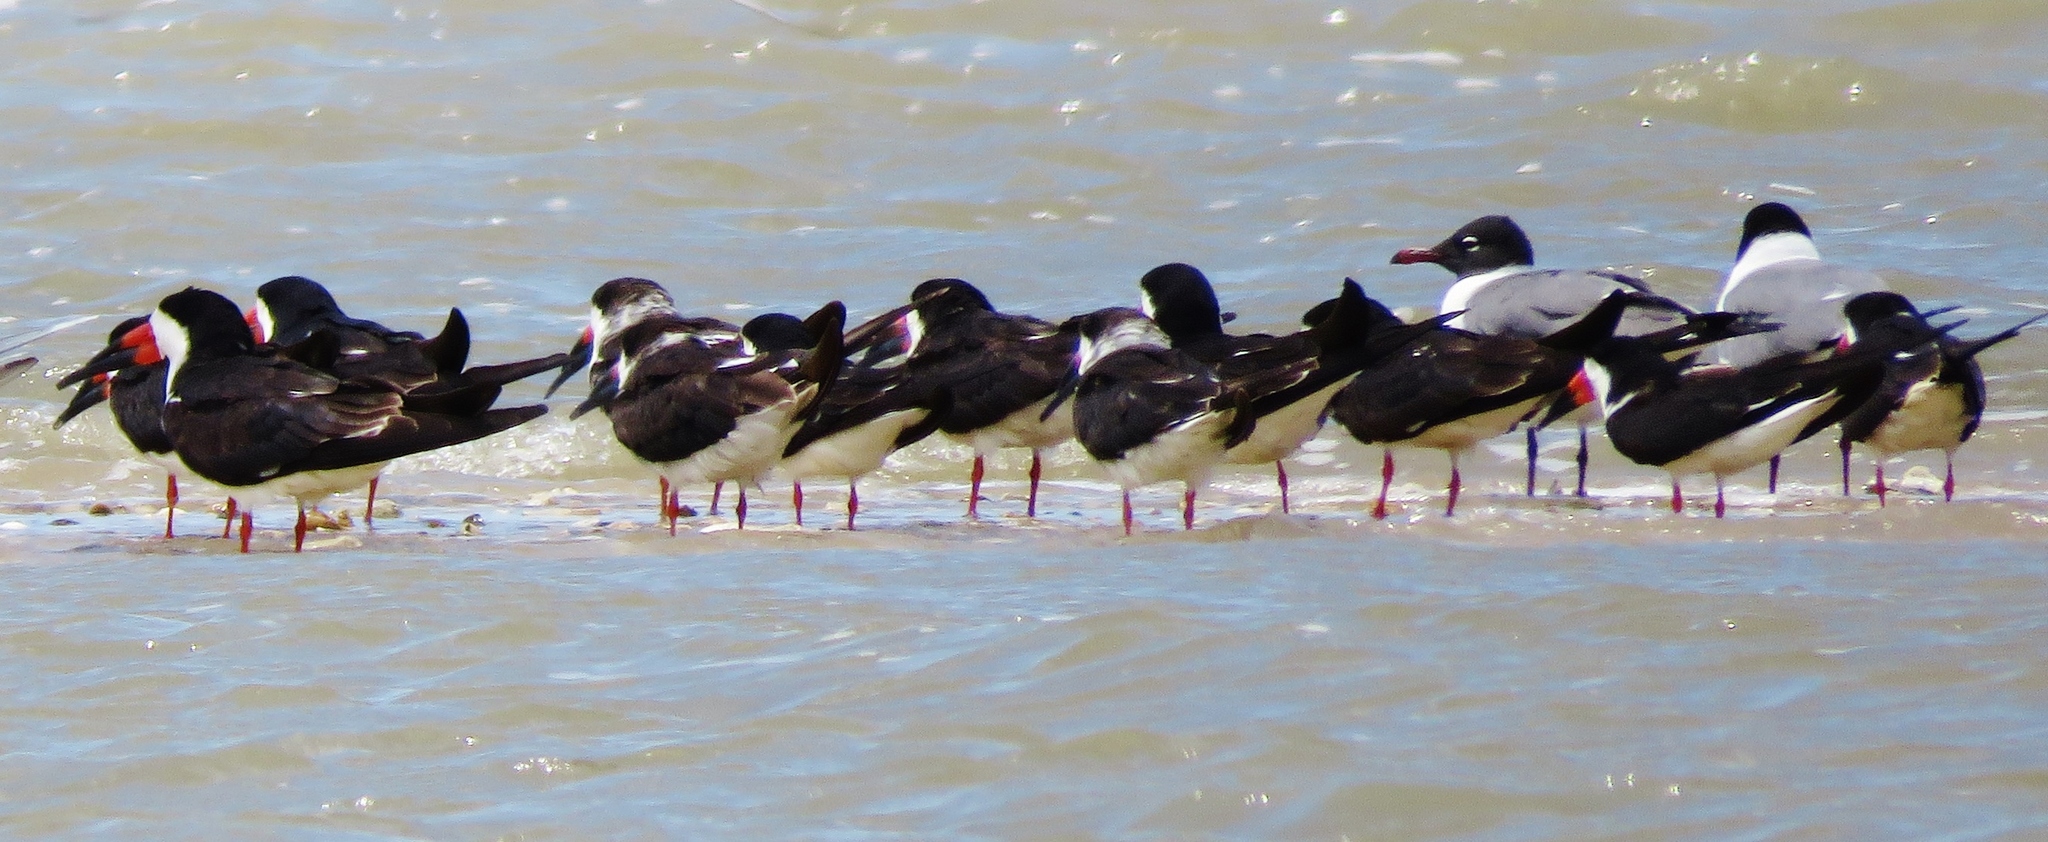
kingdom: Animalia
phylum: Chordata
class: Aves
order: Charadriiformes
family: Laridae
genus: Rynchops
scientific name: Rynchops niger
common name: Black skimmer
